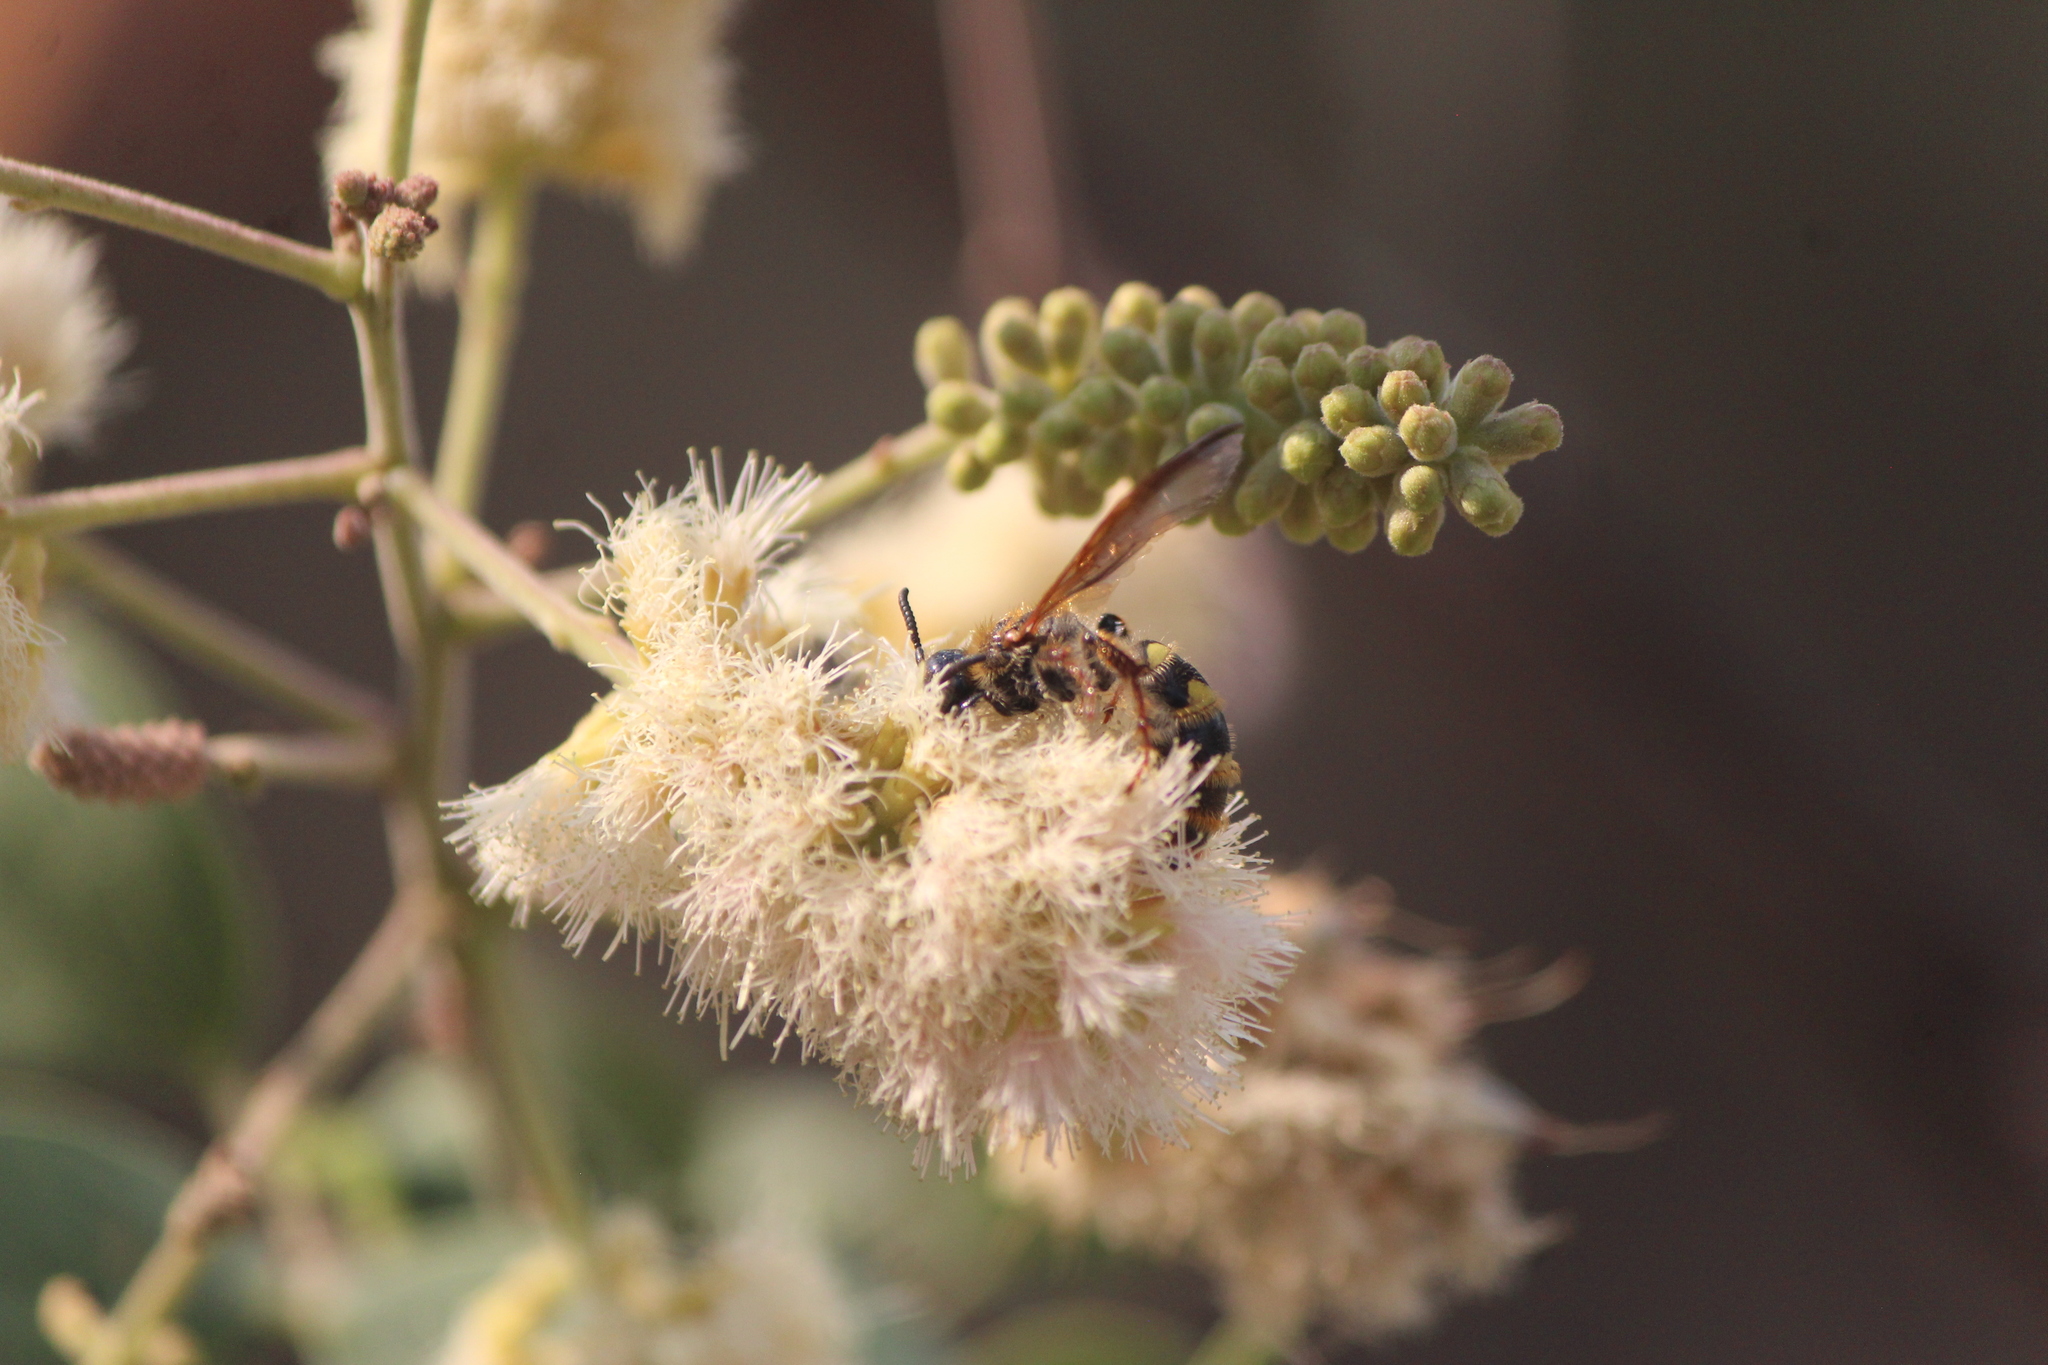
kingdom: Animalia
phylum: Arthropoda
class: Insecta
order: Hymenoptera
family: Scoliidae
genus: Xanthocampsomeris
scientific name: Xanthocampsomeris completa
